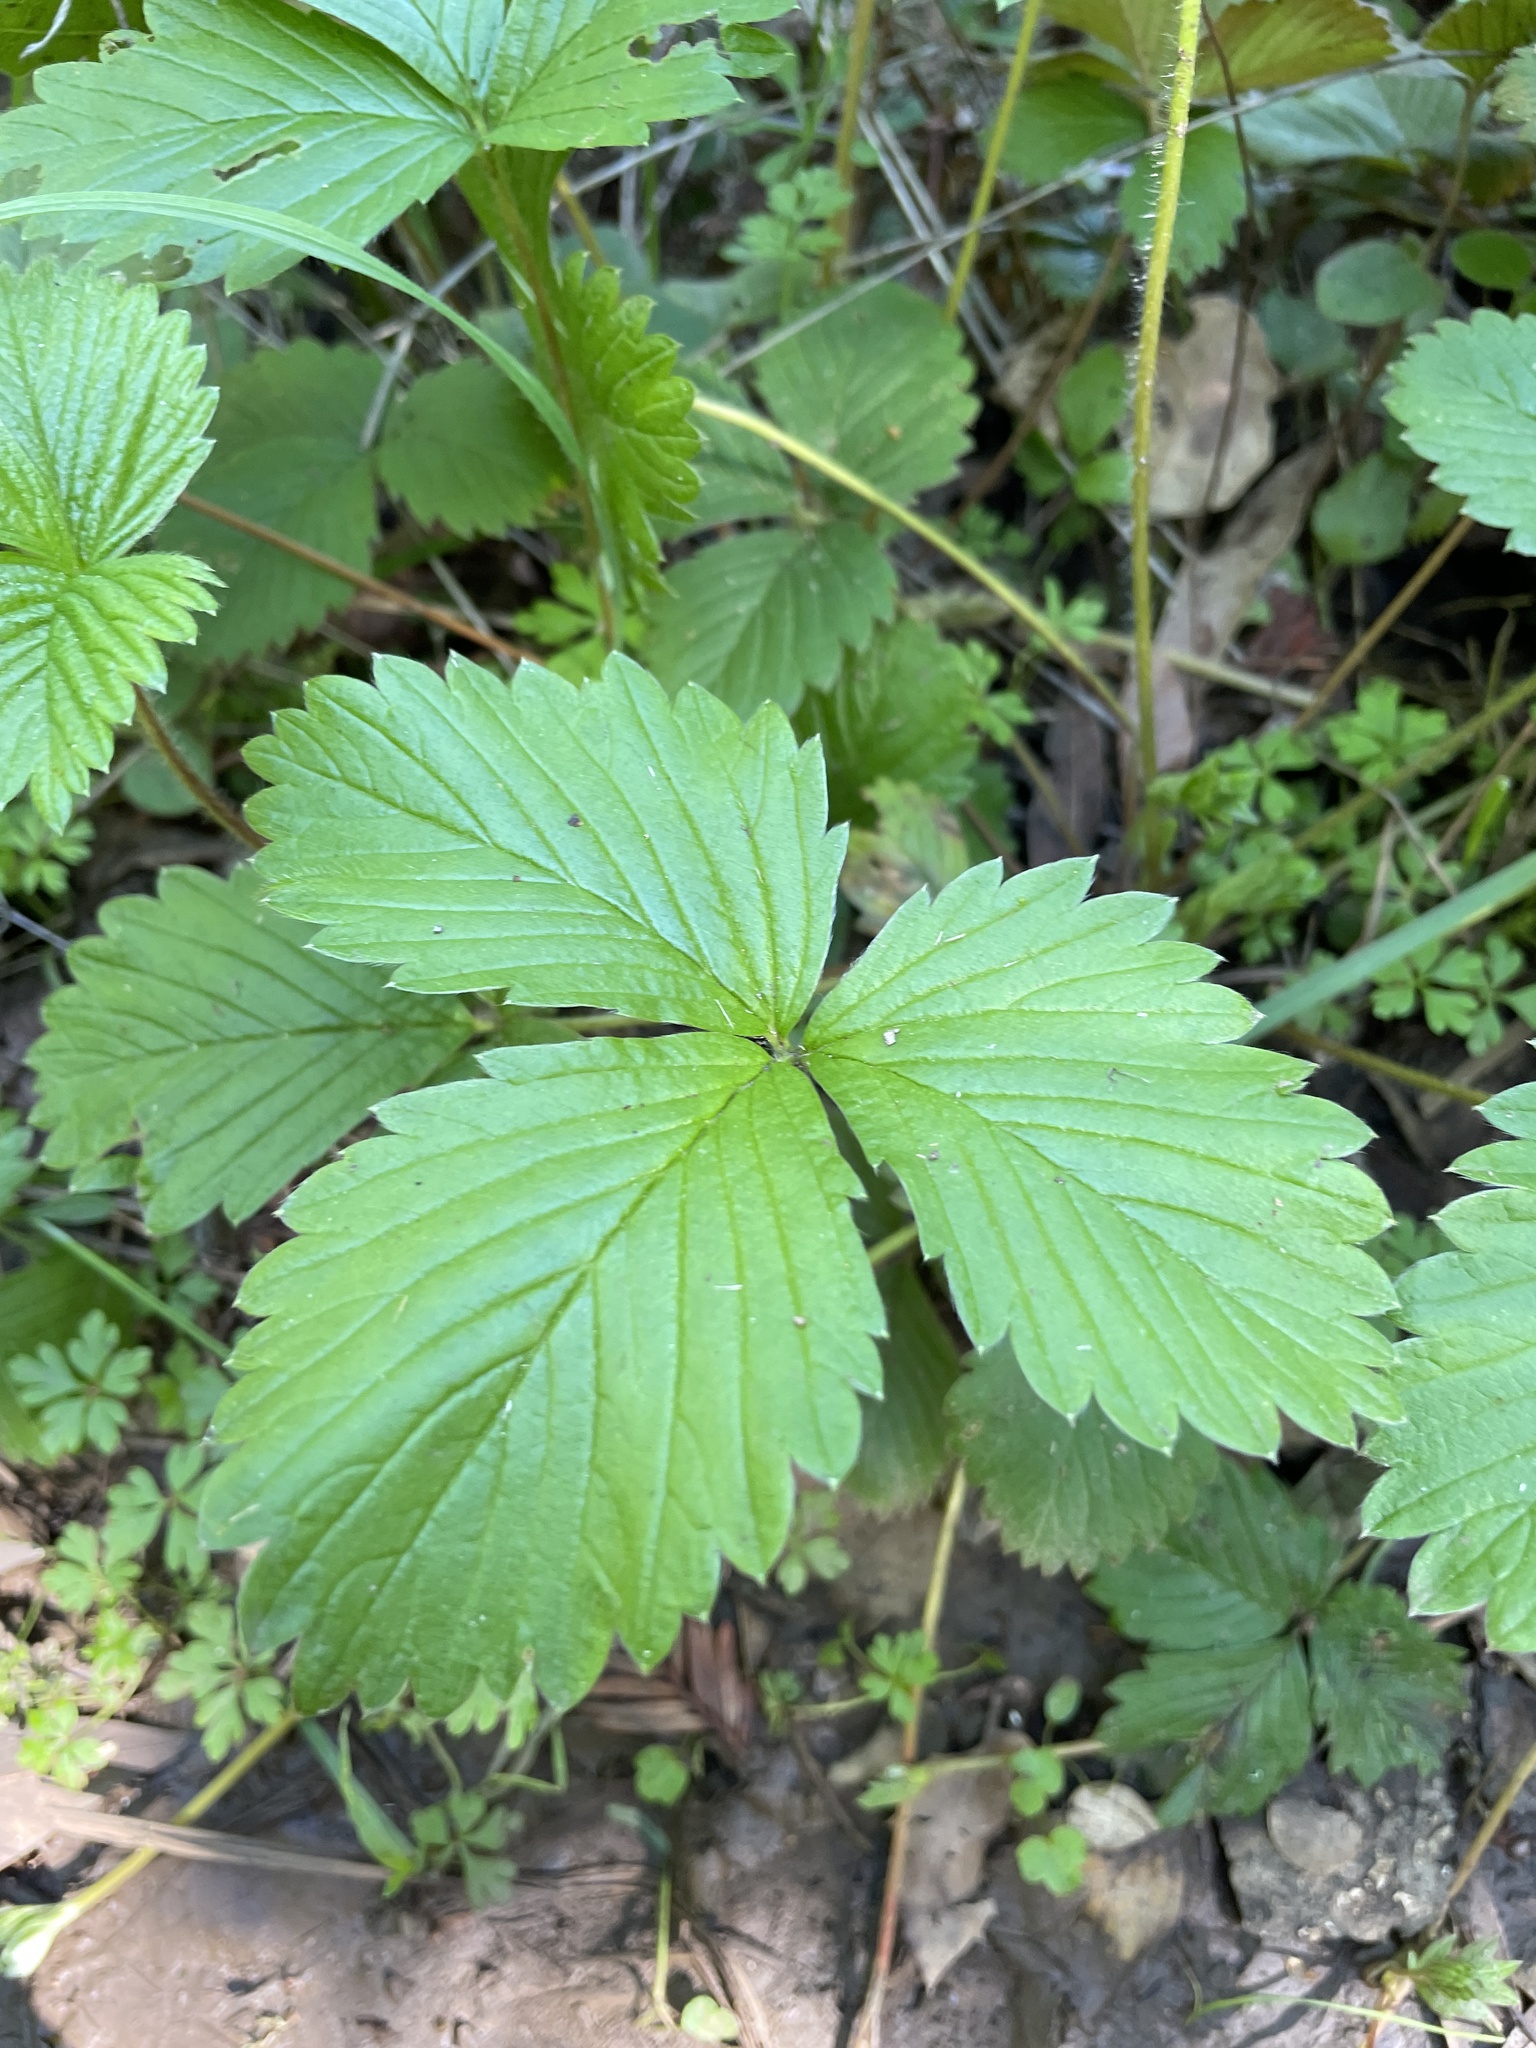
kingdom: Plantae
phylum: Tracheophyta
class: Magnoliopsida
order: Rosales
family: Rosaceae
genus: Fragaria
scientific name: Fragaria vesca
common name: Wild strawberry
